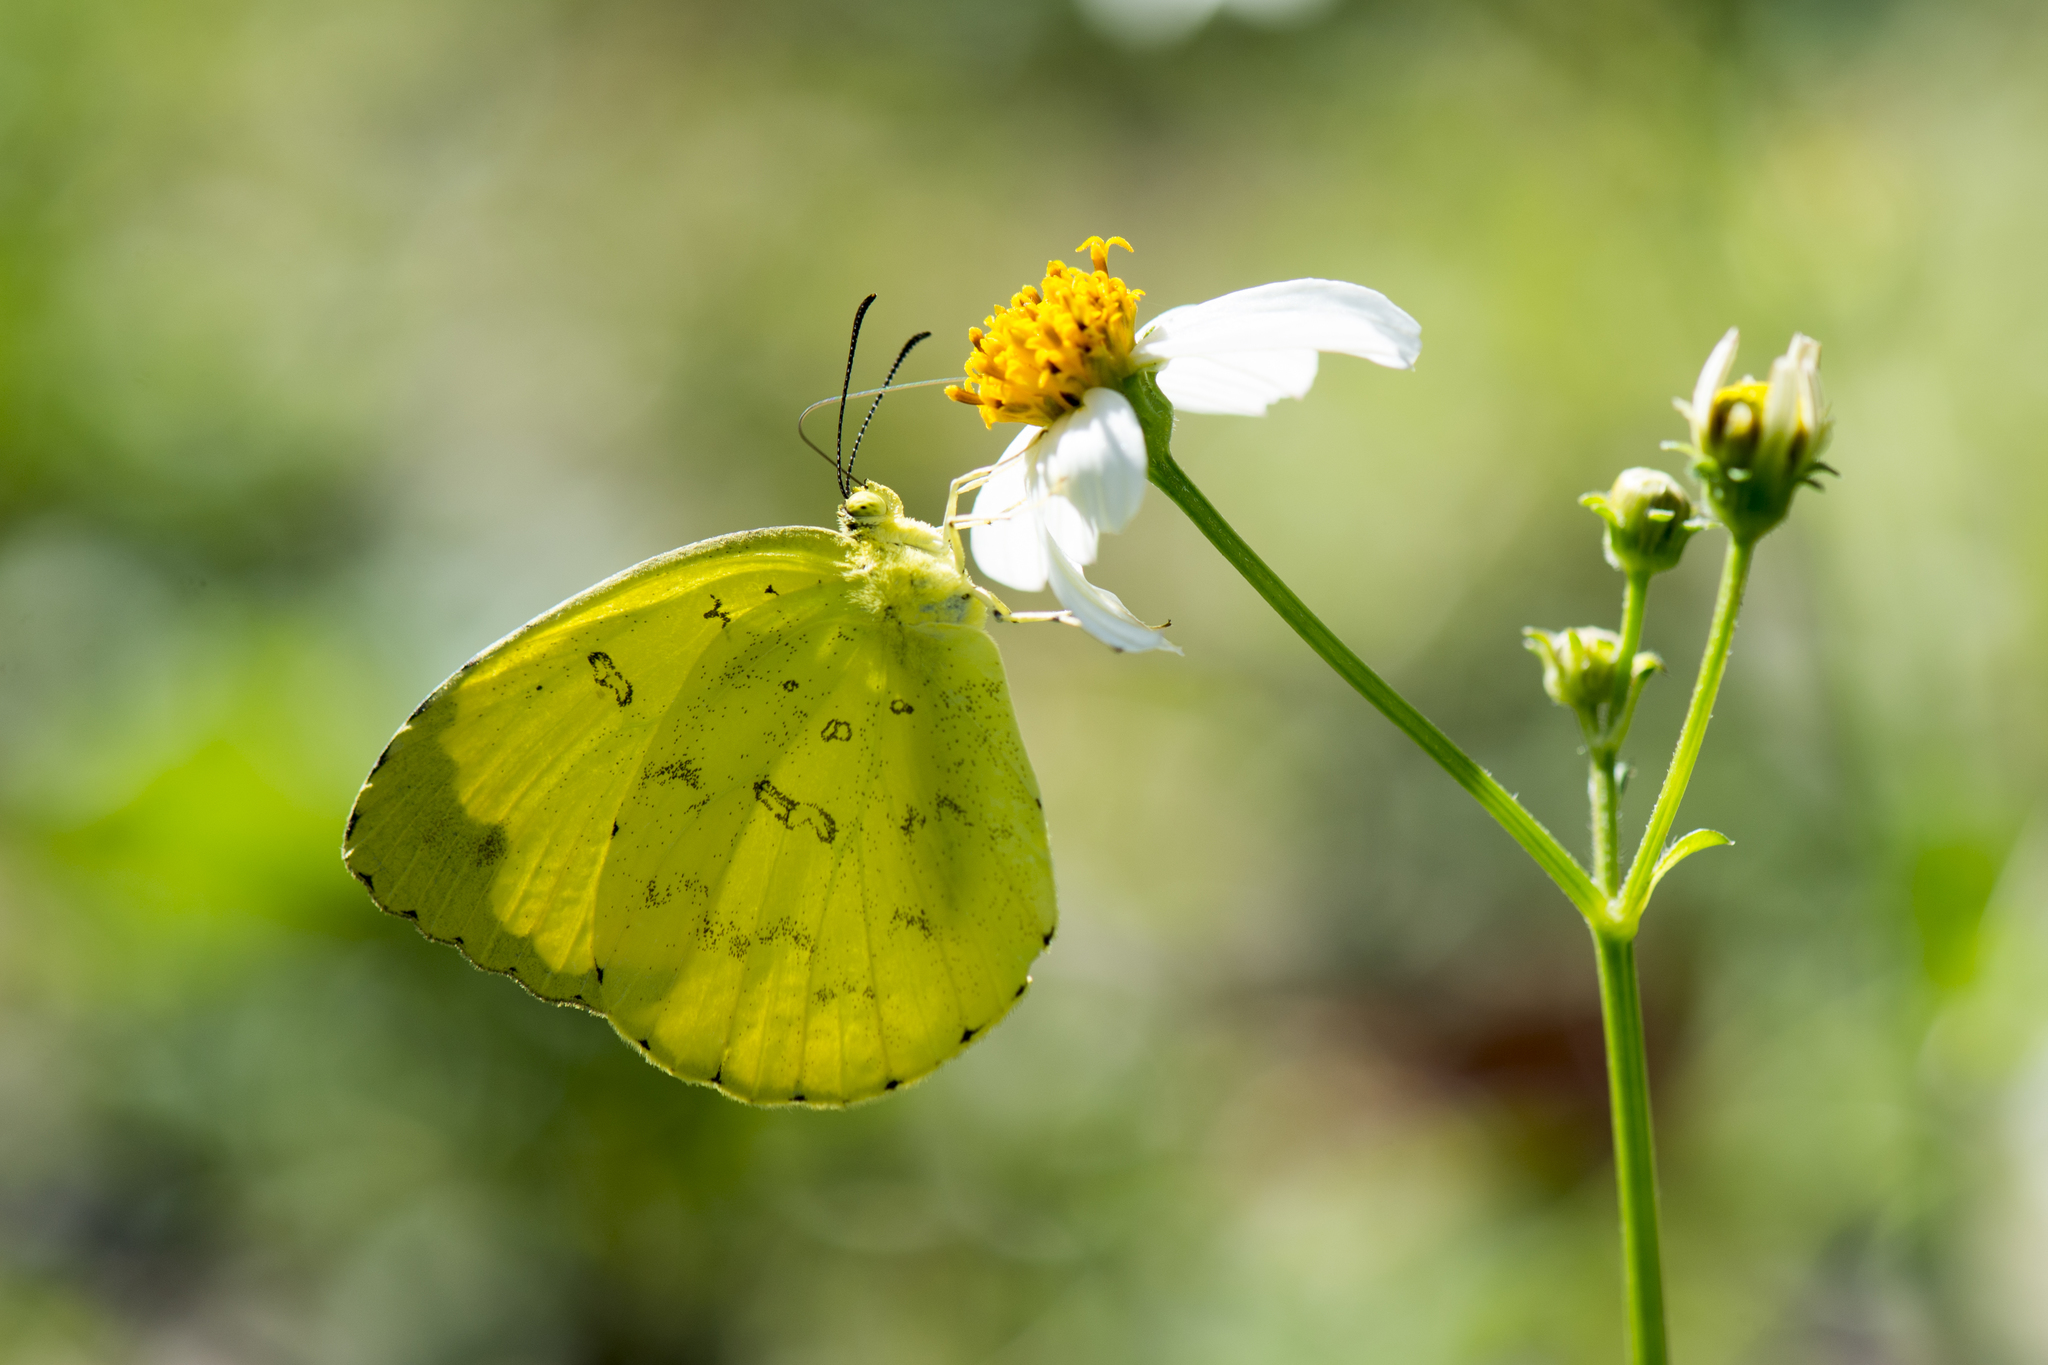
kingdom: Animalia
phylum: Arthropoda
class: Insecta
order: Lepidoptera
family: Pieridae
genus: Eurema
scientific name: Eurema blanda
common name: Three-spot grass yellow
